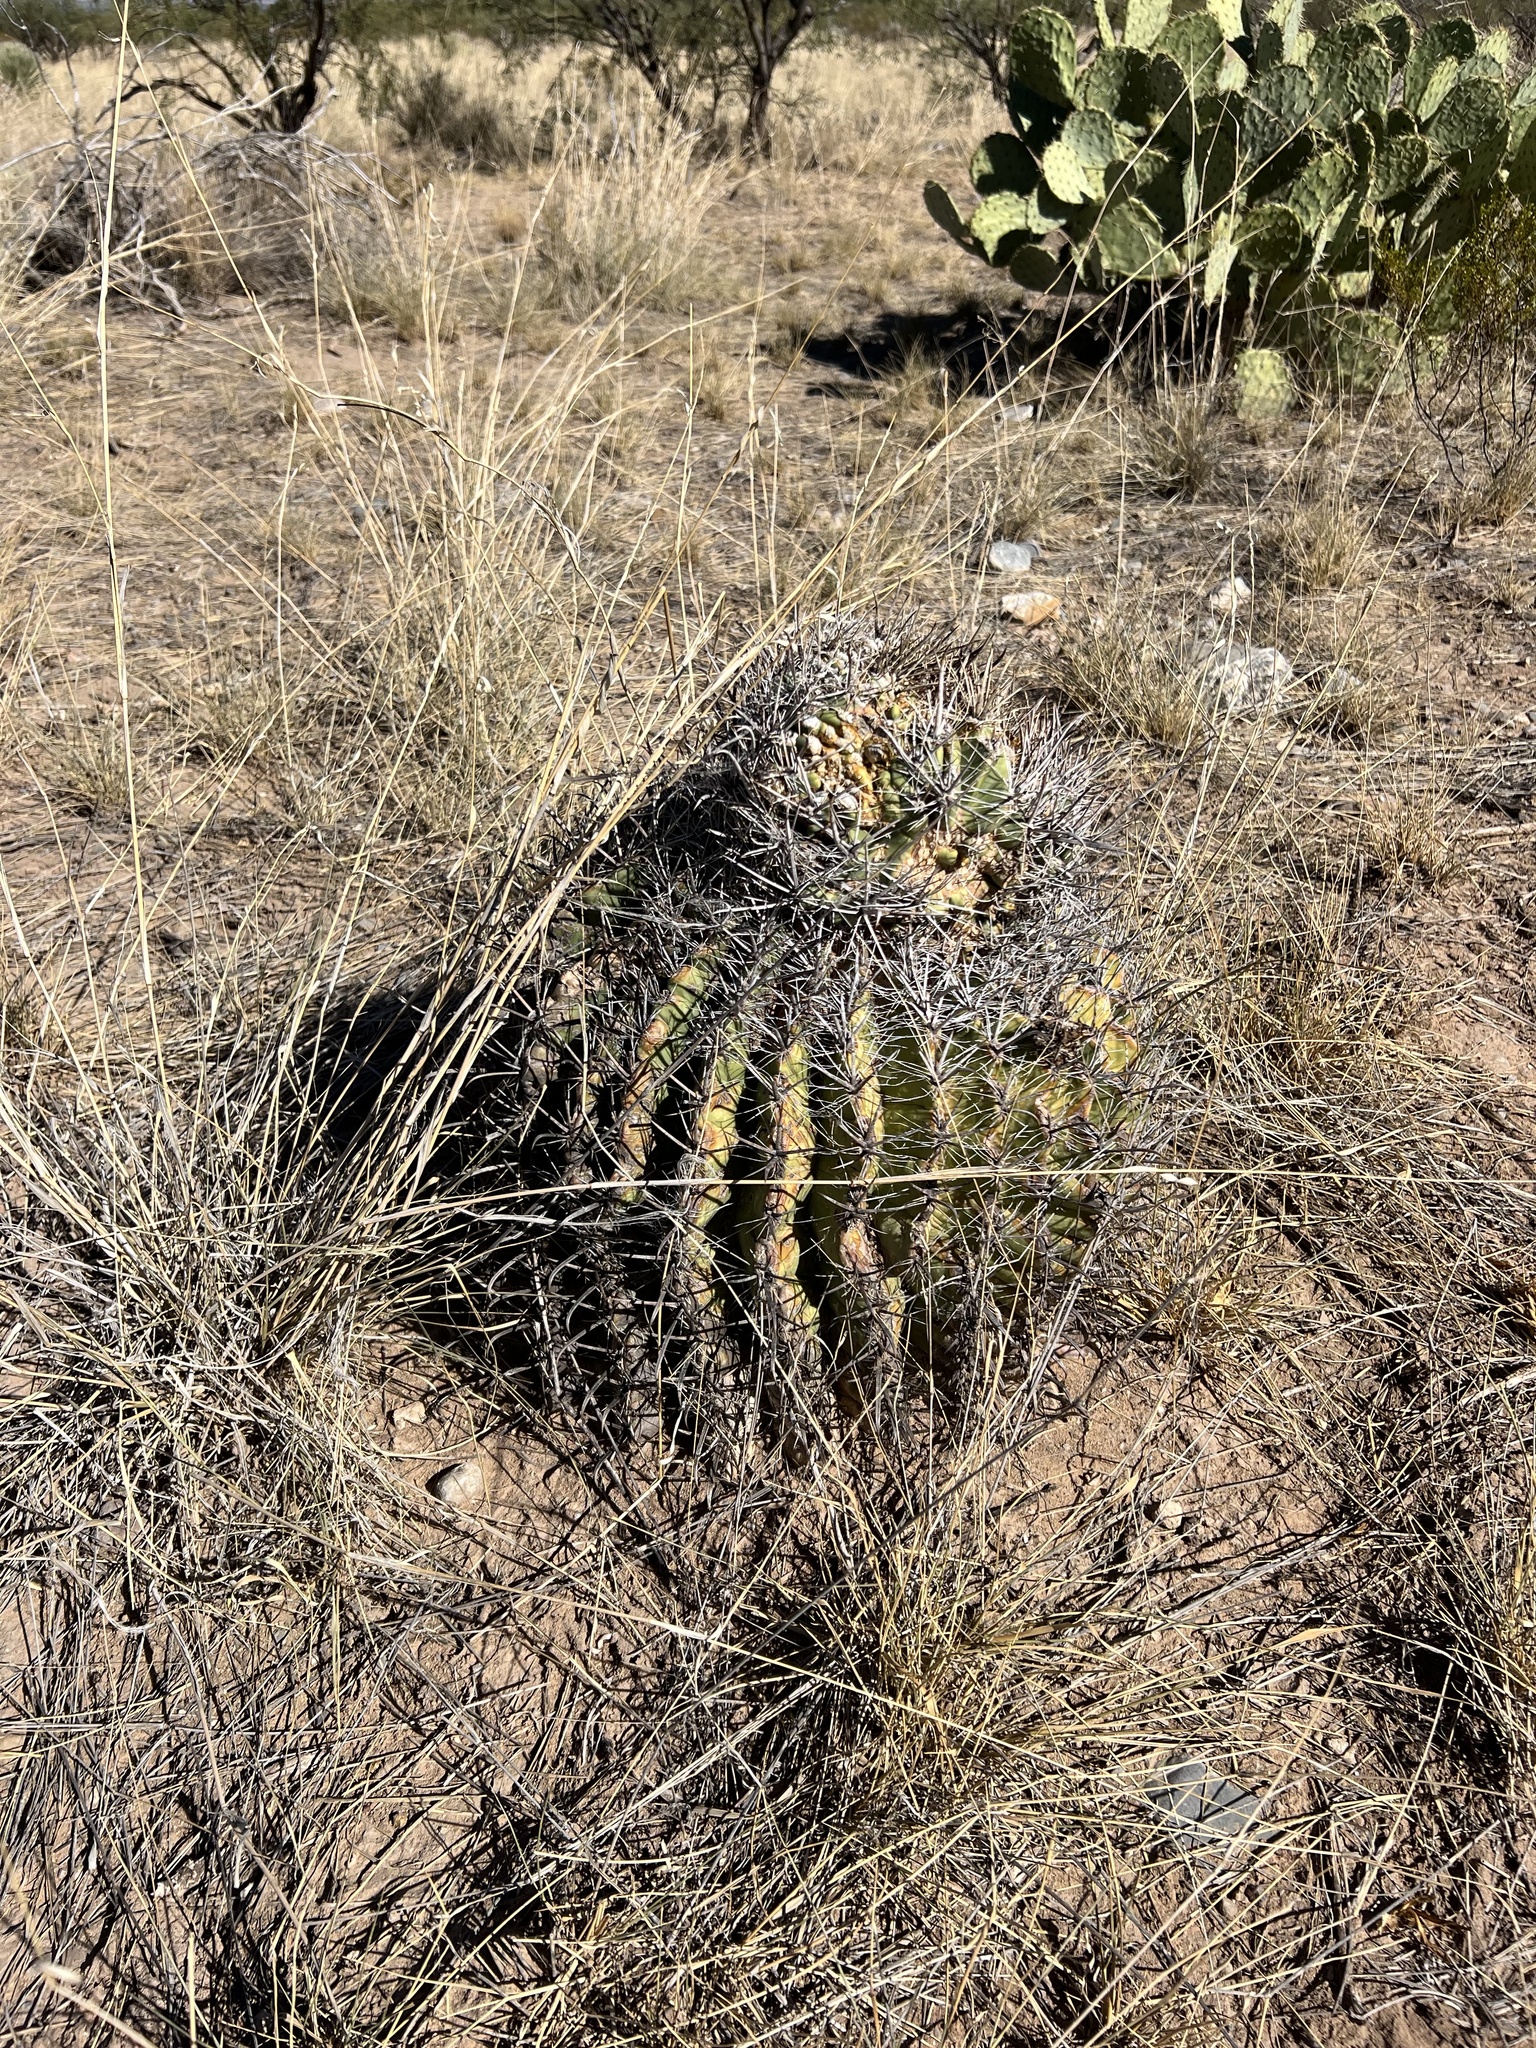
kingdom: Plantae
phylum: Tracheophyta
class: Magnoliopsida
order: Caryophyllales
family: Cactaceae
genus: Ferocactus
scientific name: Ferocactus wislizeni
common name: Candy barrel cactus
